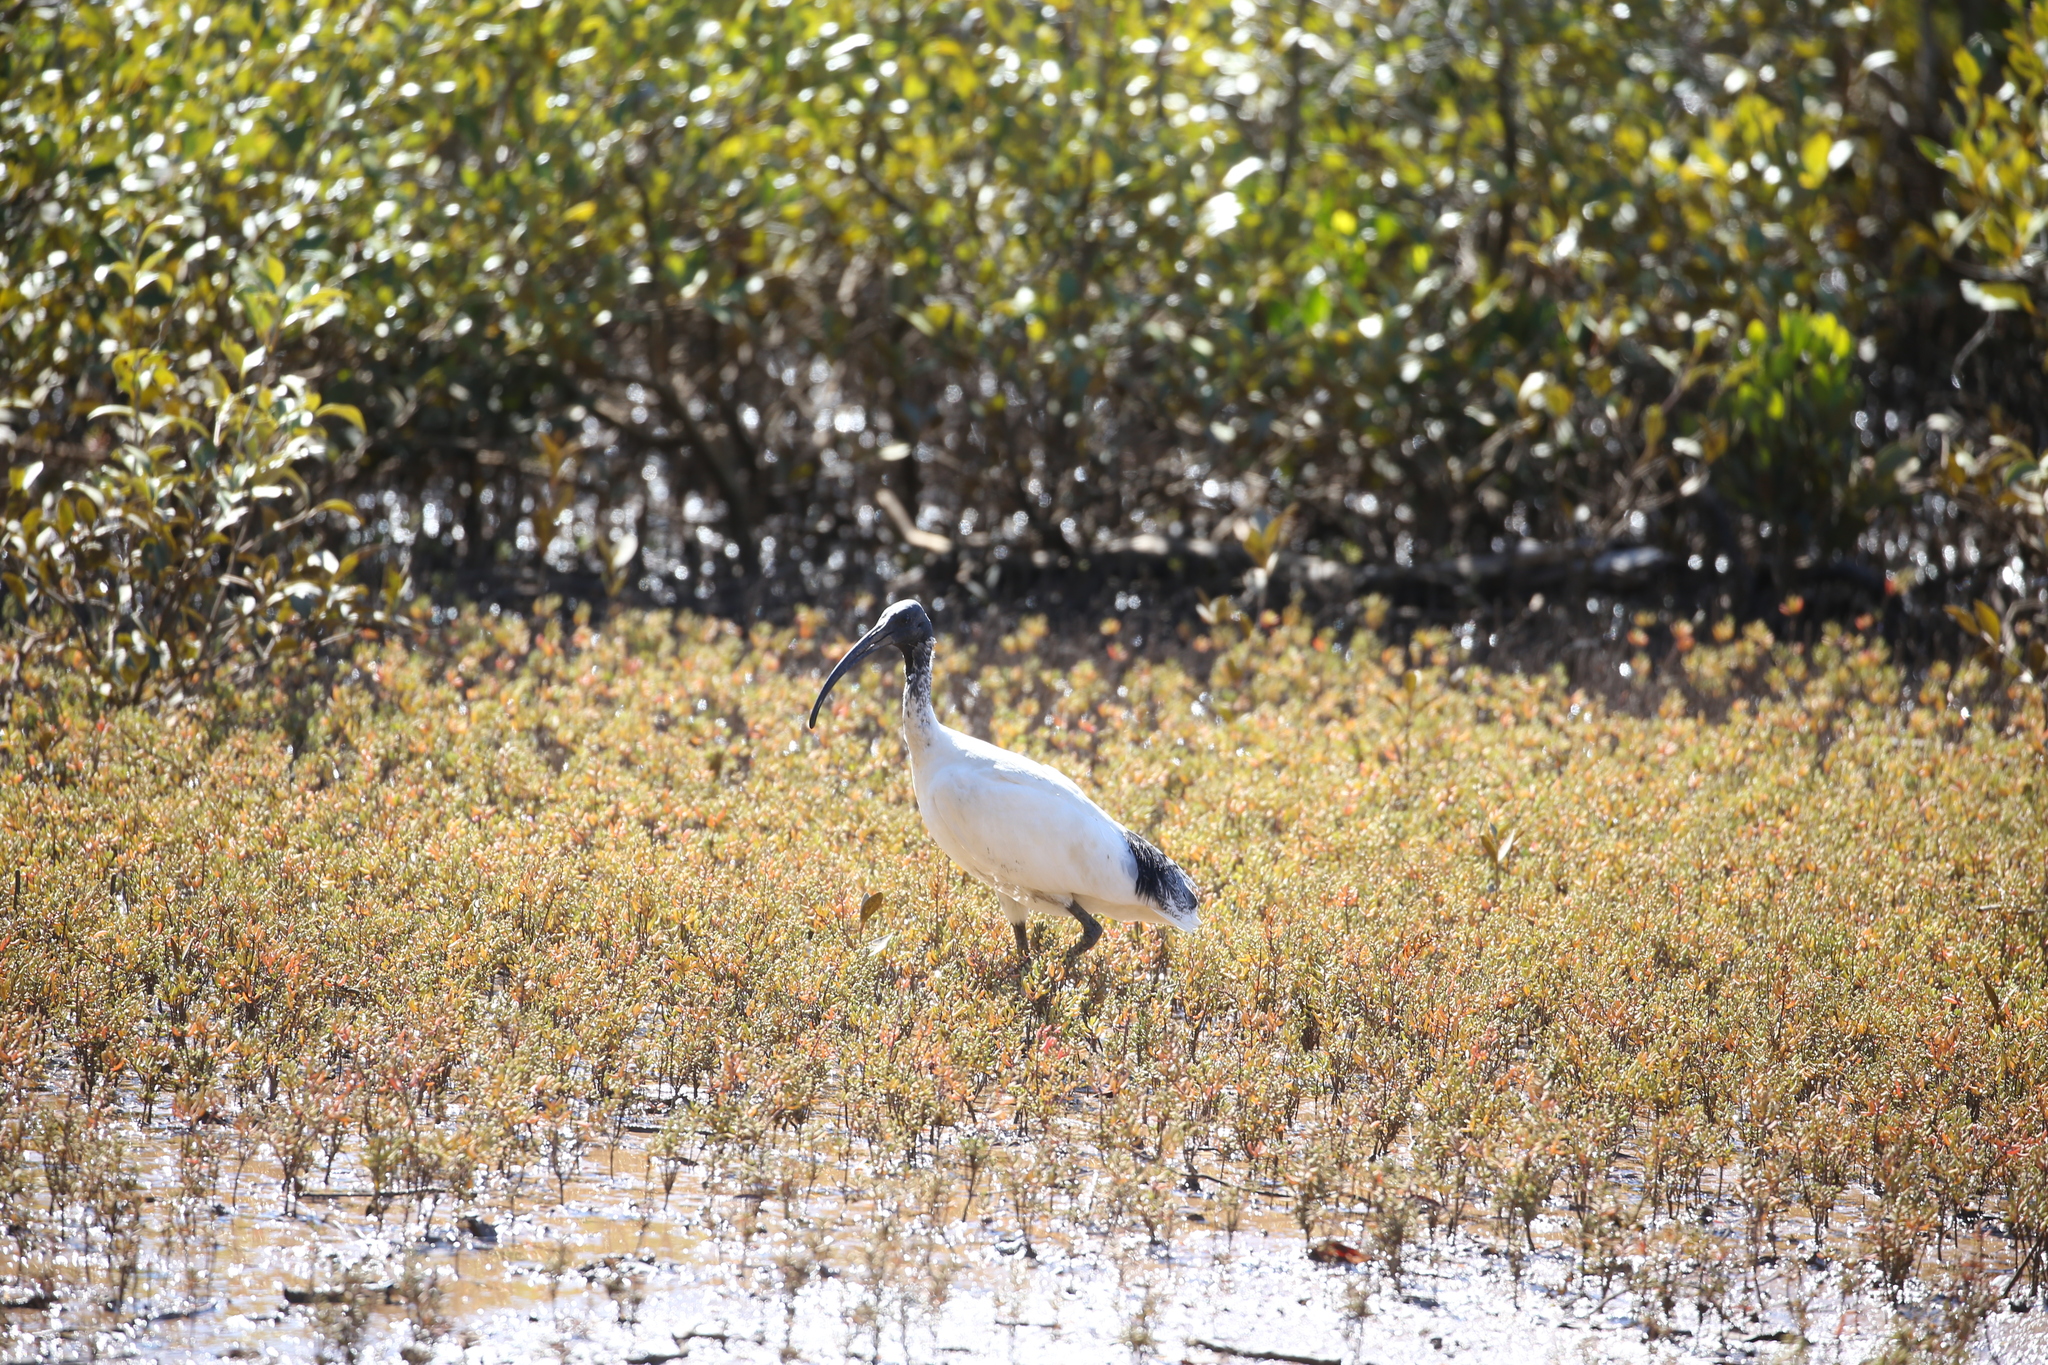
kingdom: Animalia
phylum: Chordata
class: Aves
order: Pelecaniformes
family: Threskiornithidae
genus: Threskiornis
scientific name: Threskiornis molucca
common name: Australian white ibis
